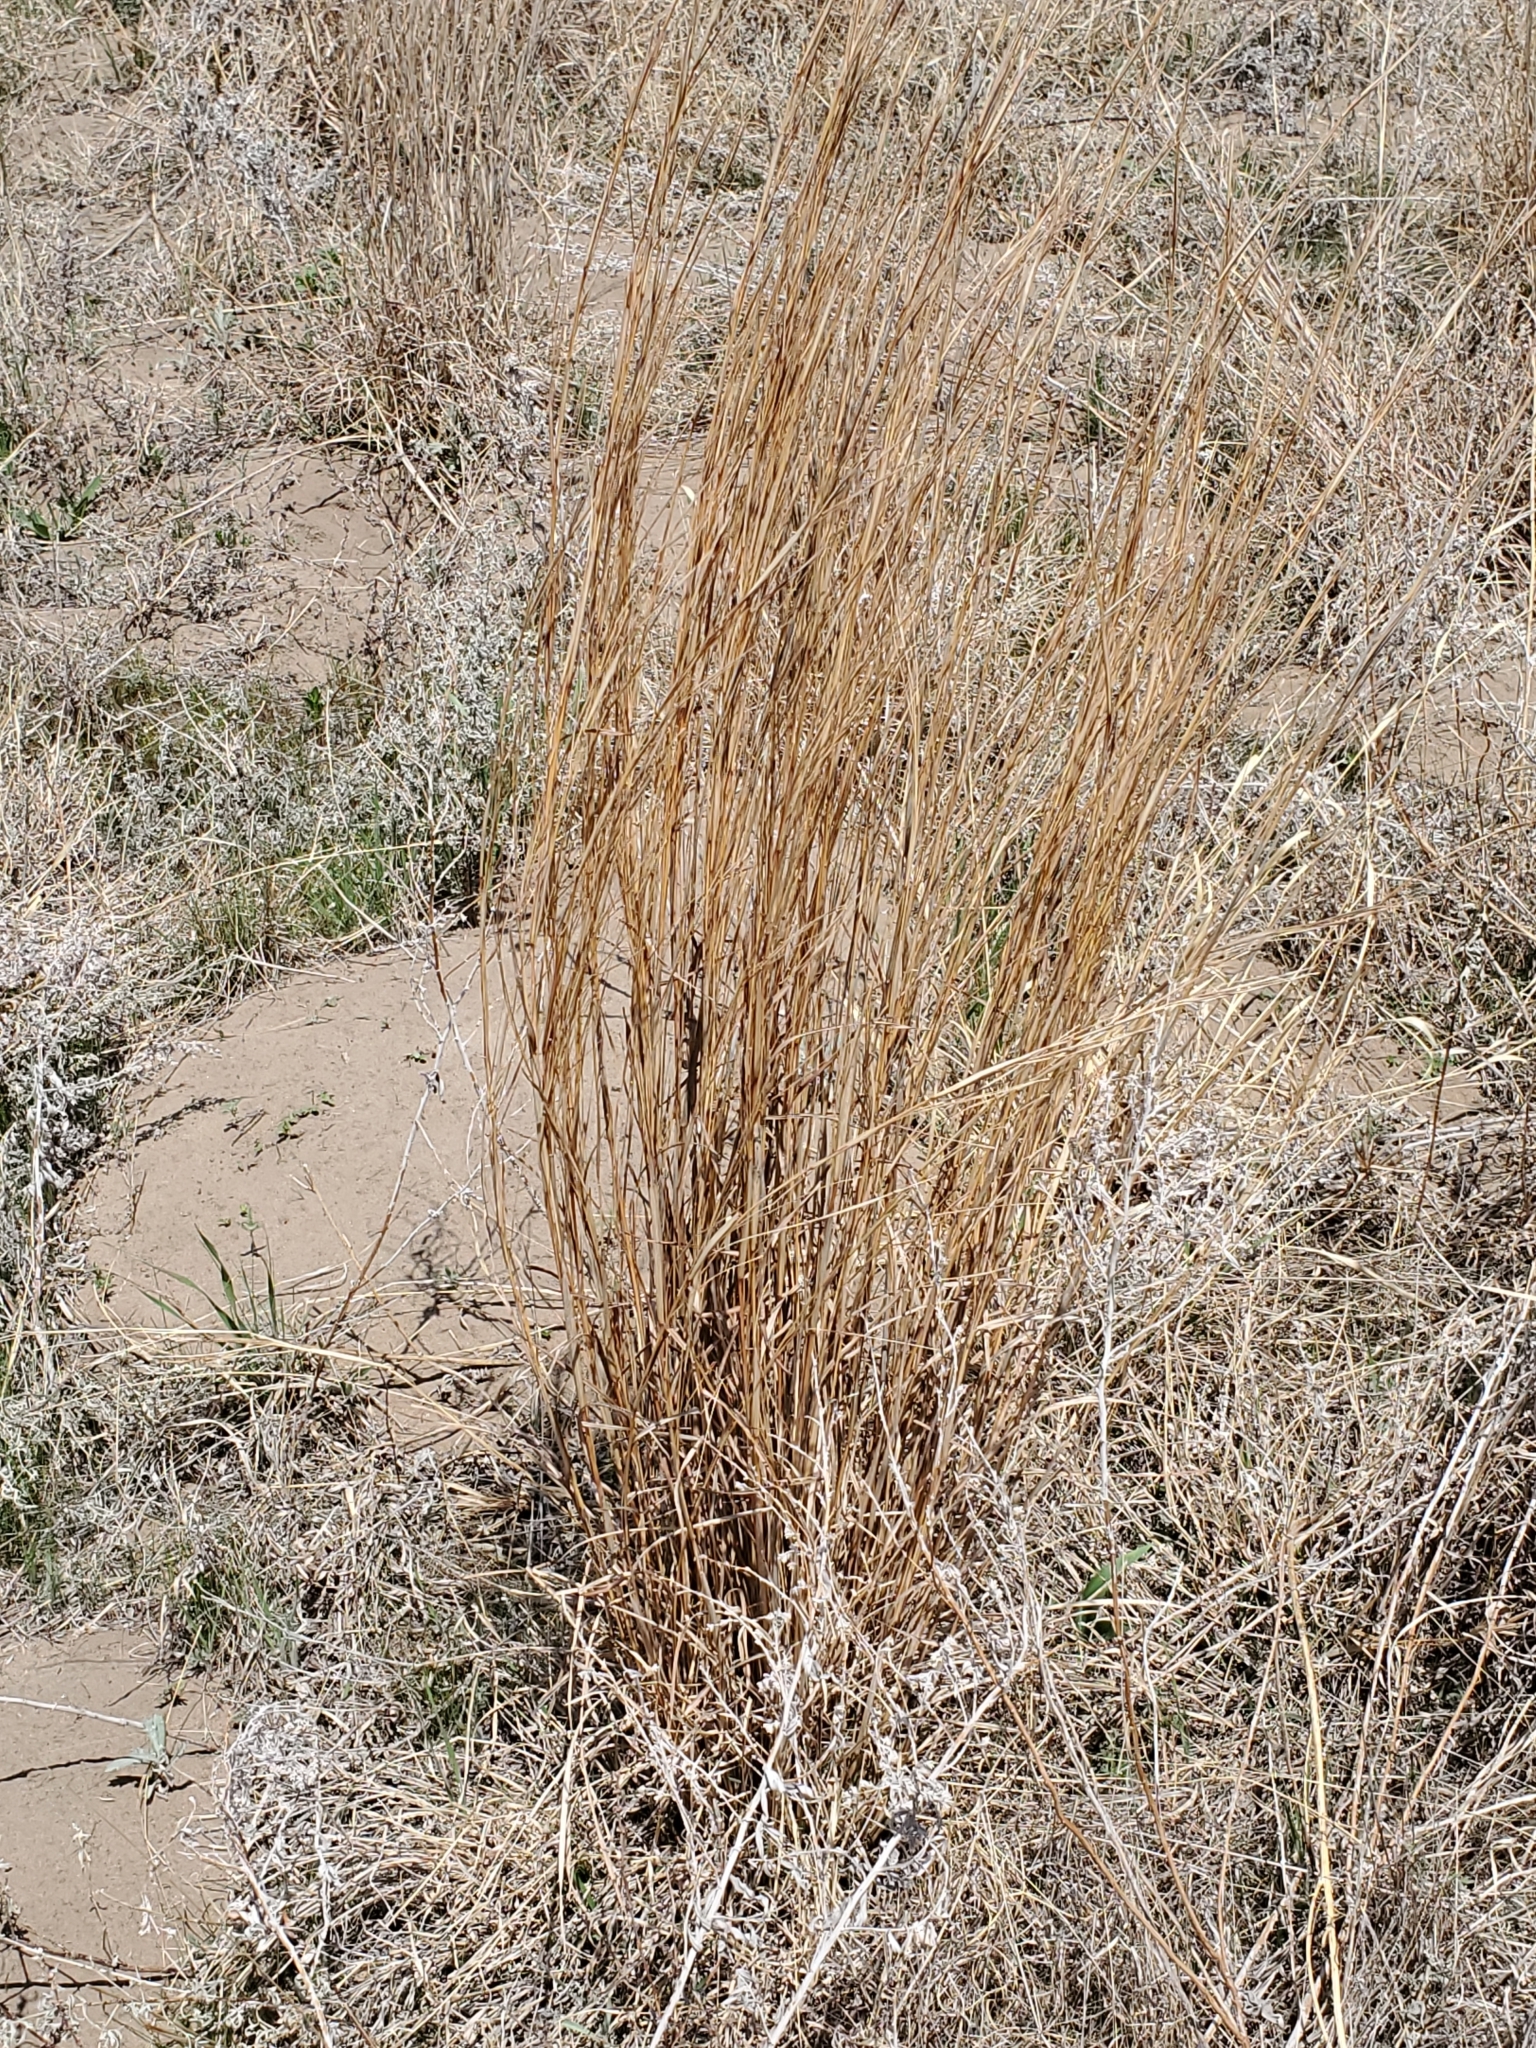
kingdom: Plantae
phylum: Tracheophyta
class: Liliopsida
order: Poales
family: Poaceae
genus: Schizachyrium
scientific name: Schizachyrium scoparium
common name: Little bluestem
